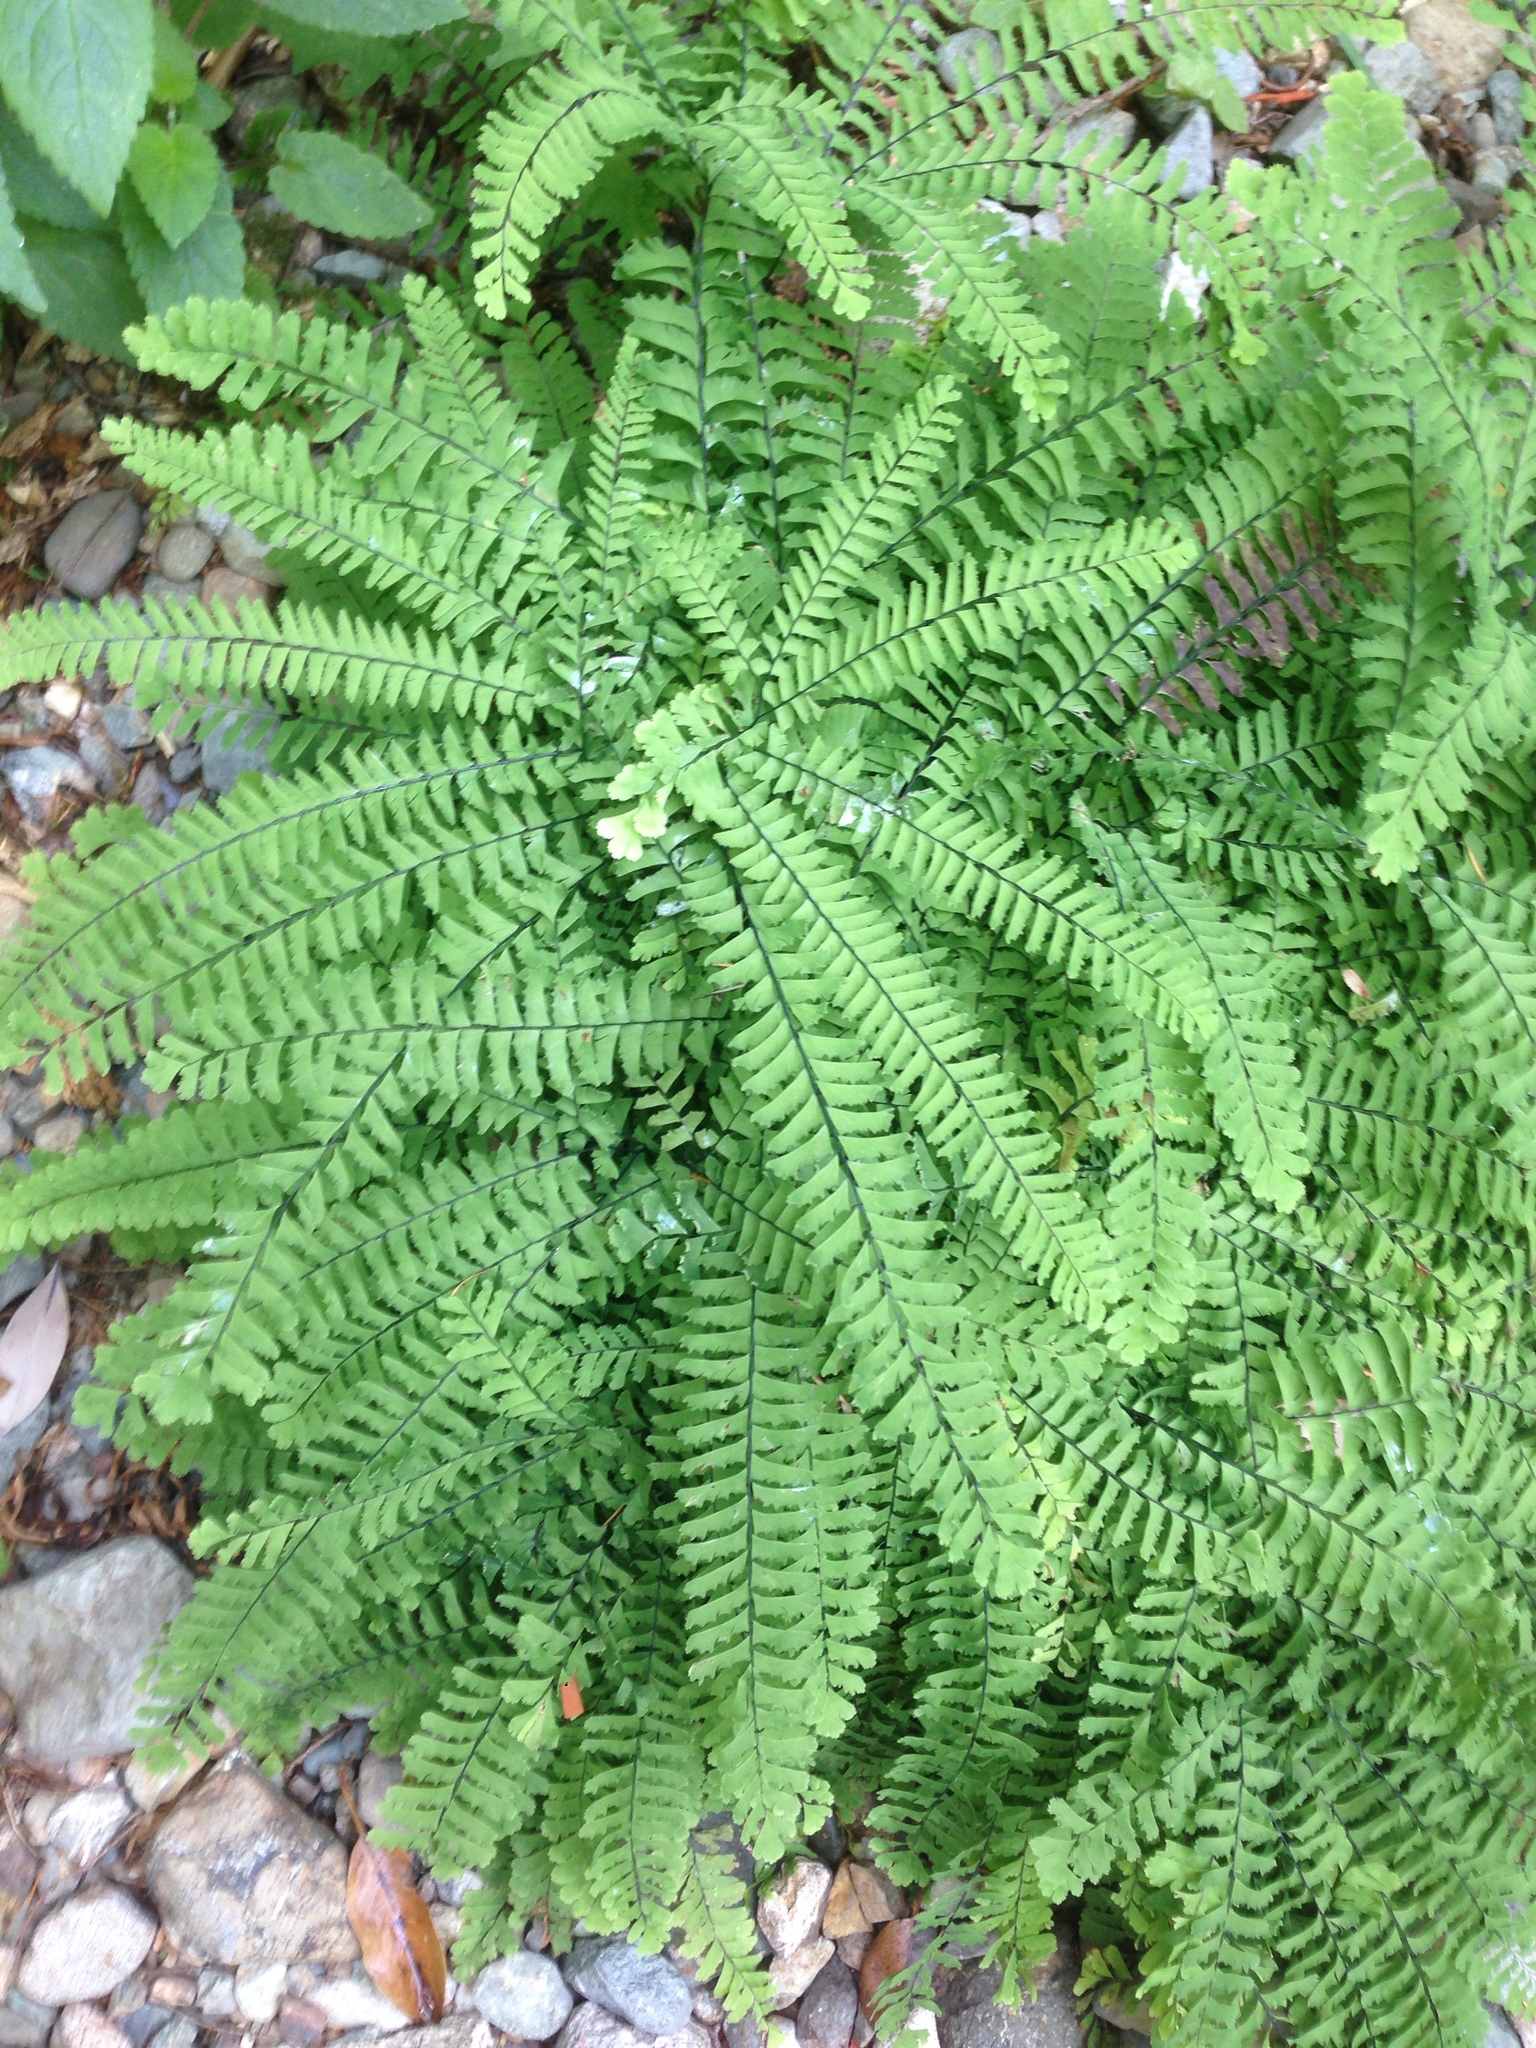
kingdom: Plantae
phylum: Tracheophyta
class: Polypodiopsida
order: Polypodiales
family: Pteridaceae
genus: Adiantum
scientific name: Adiantum aleuticum
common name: Aleutian maidenhair fern
